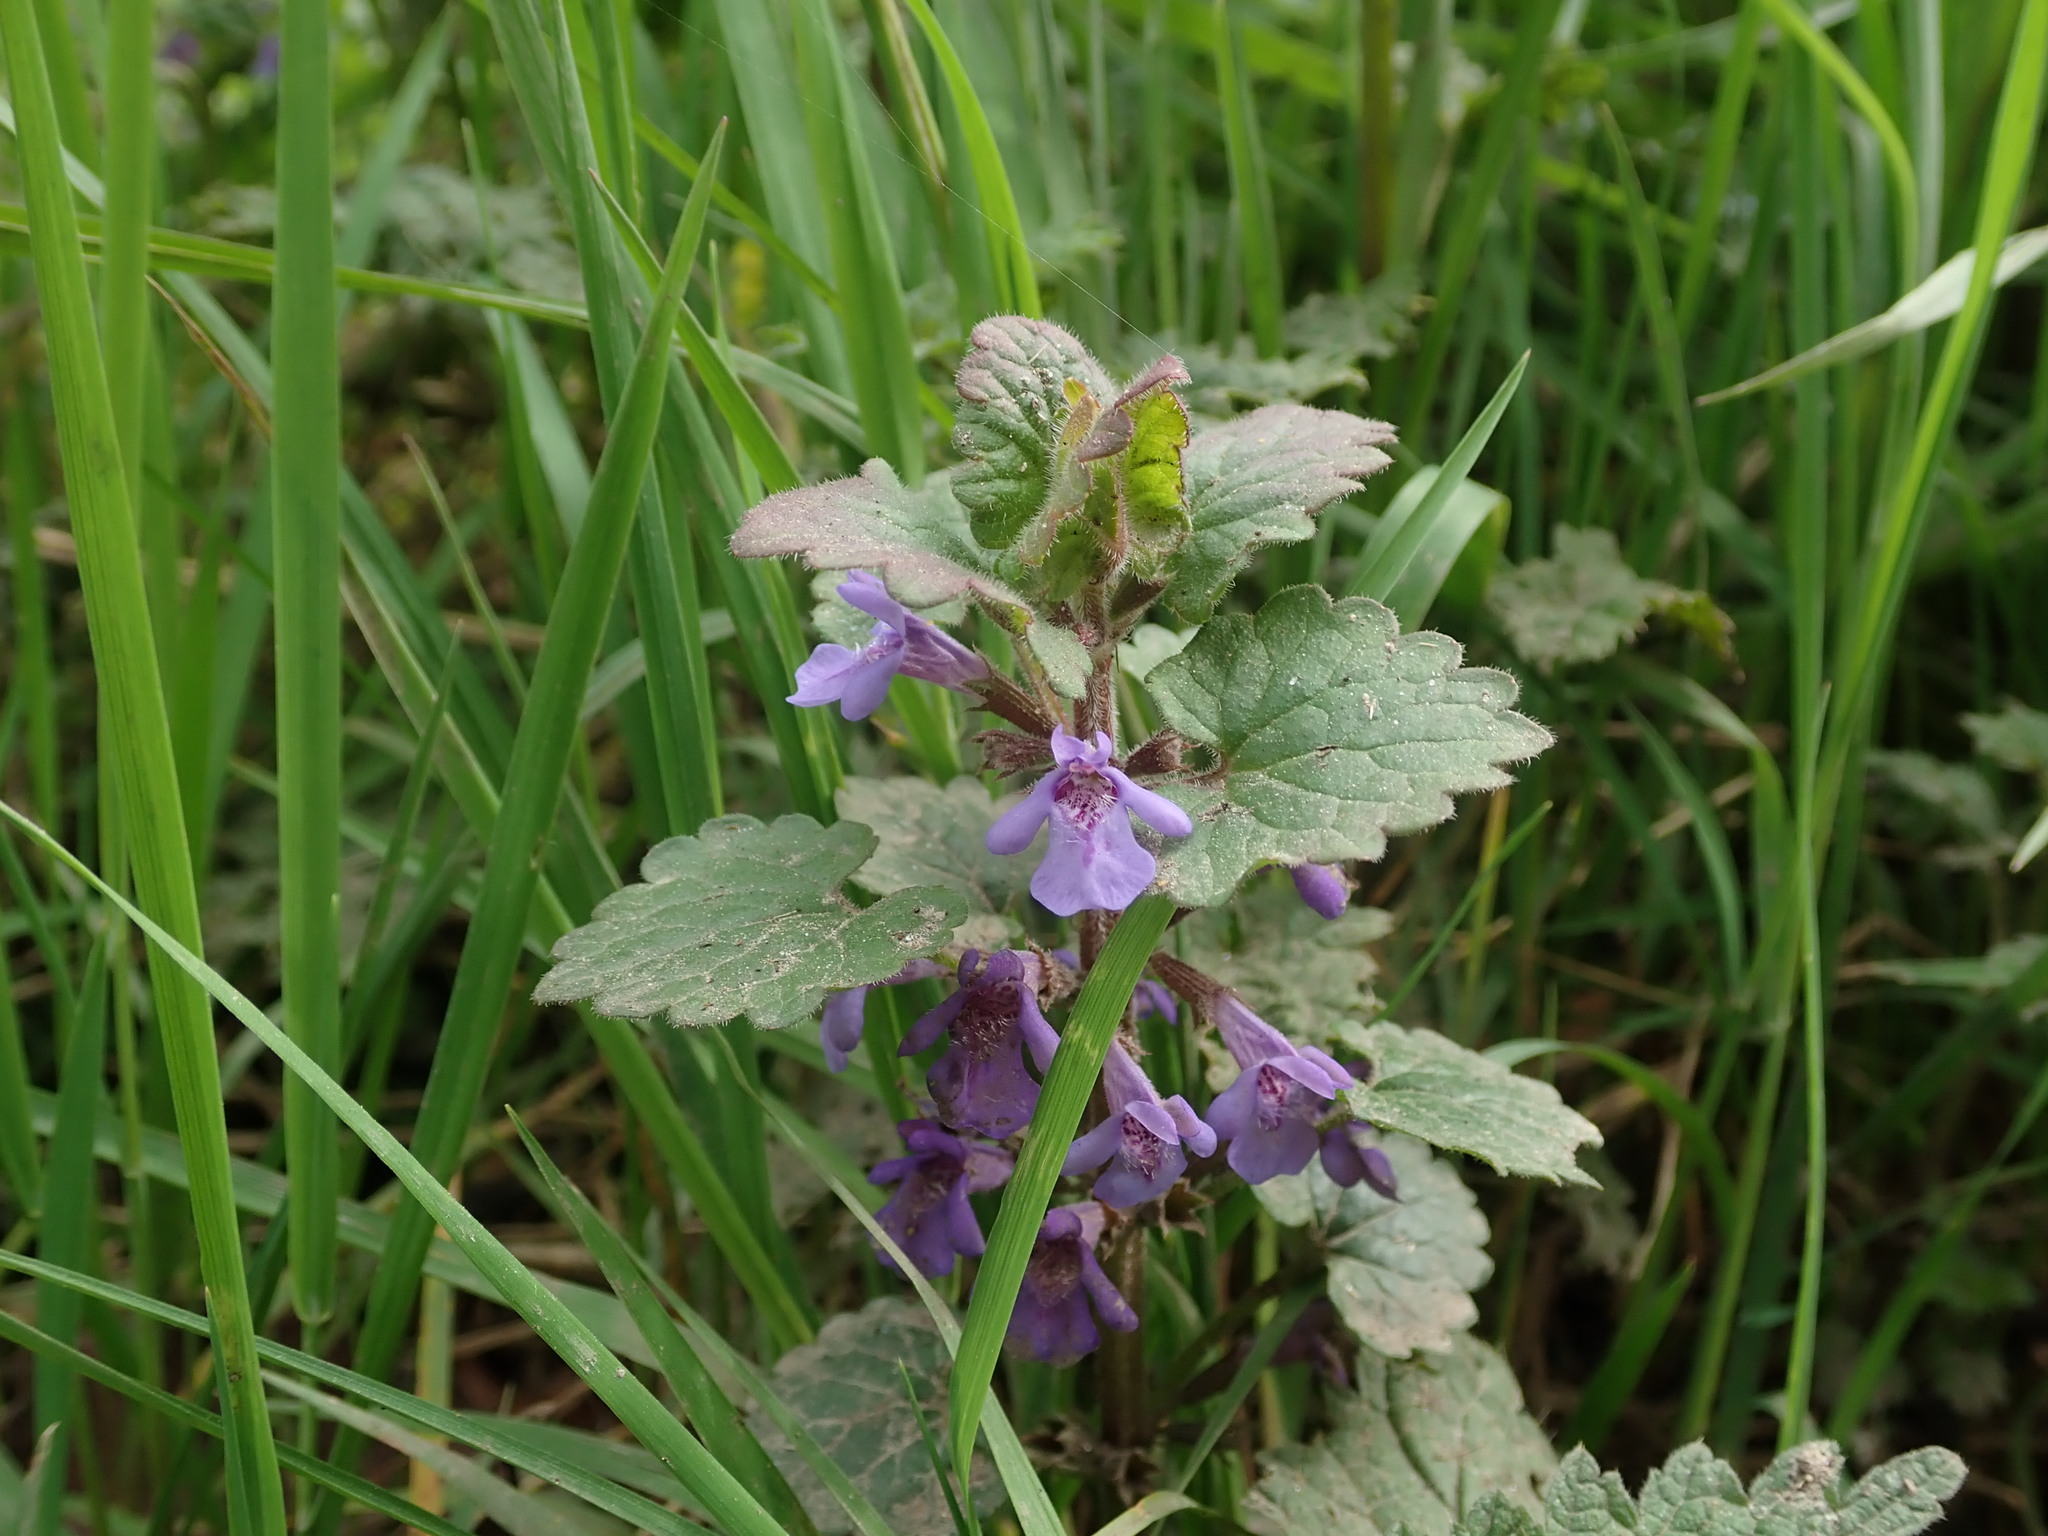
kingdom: Plantae
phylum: Tracheophyta
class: Magnoliopsida
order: Lamiales
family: Lamiaceae
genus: Glechoma
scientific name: Glechoma hederacea
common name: Ground ivy
